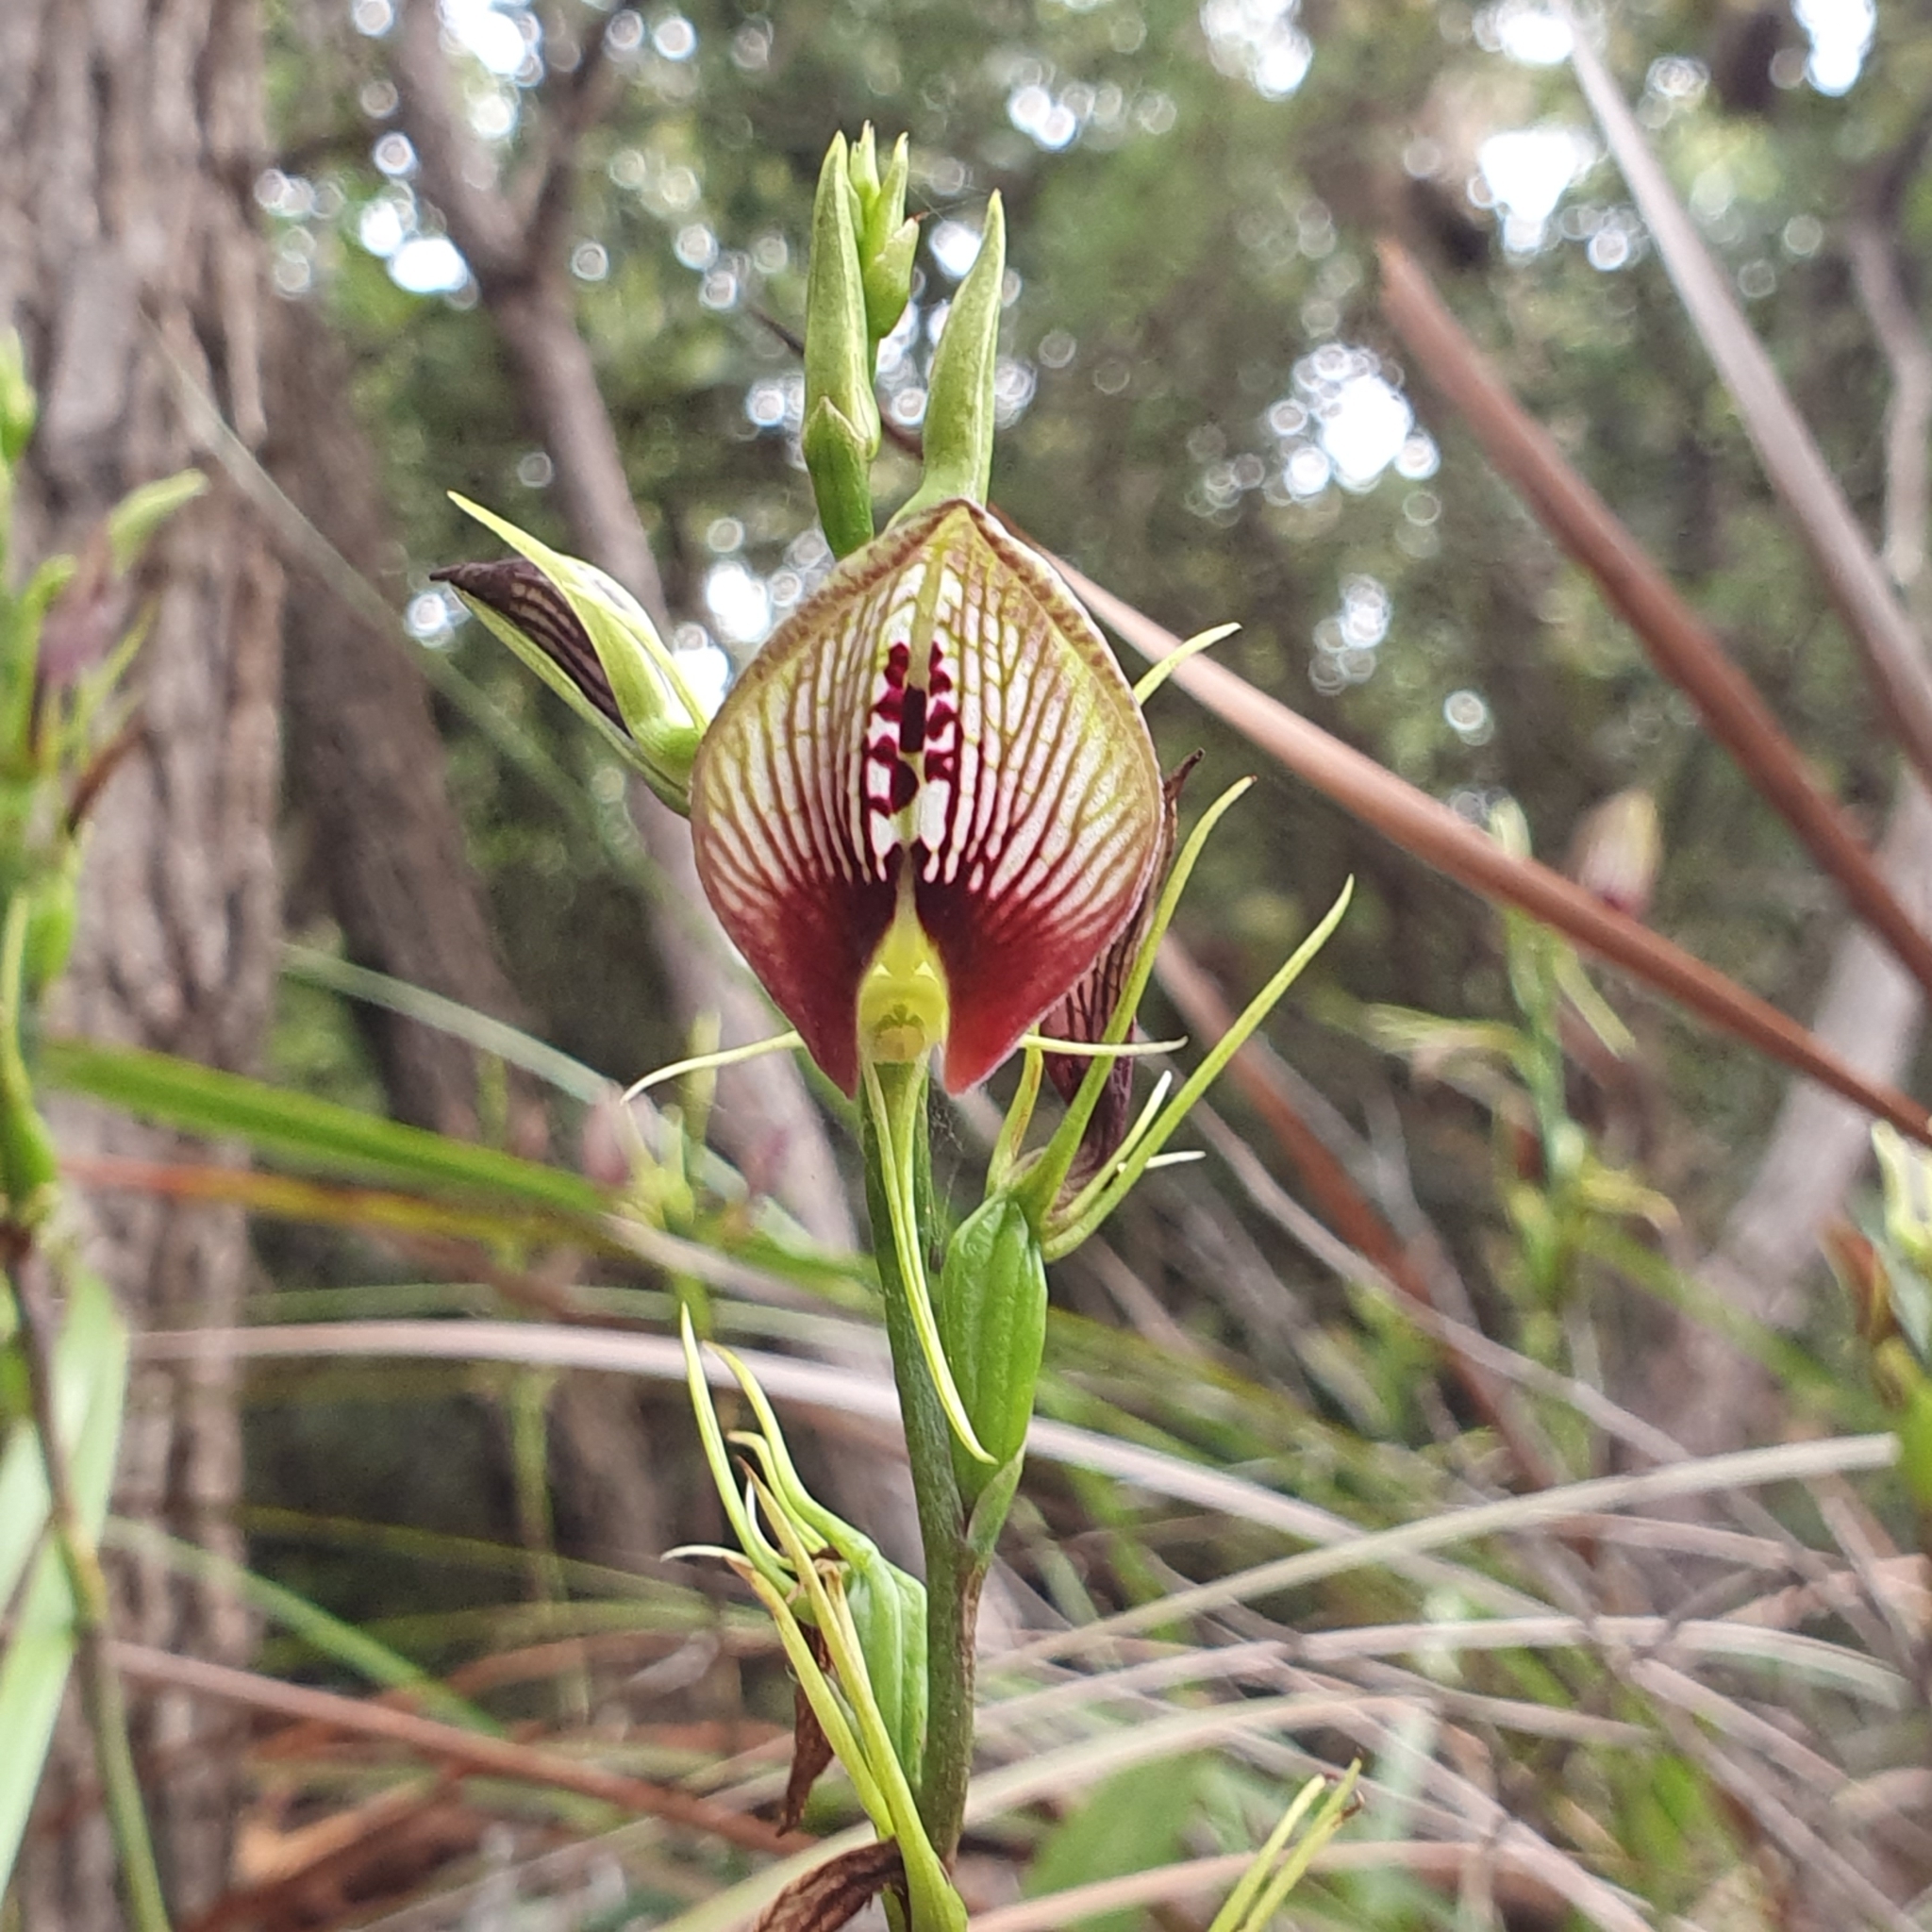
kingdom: Plantae
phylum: Tracheophyta
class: Liliopsida
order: Asparagales
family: Orchidaceae
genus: Cryptostylis
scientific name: Cryptostylis erecta
